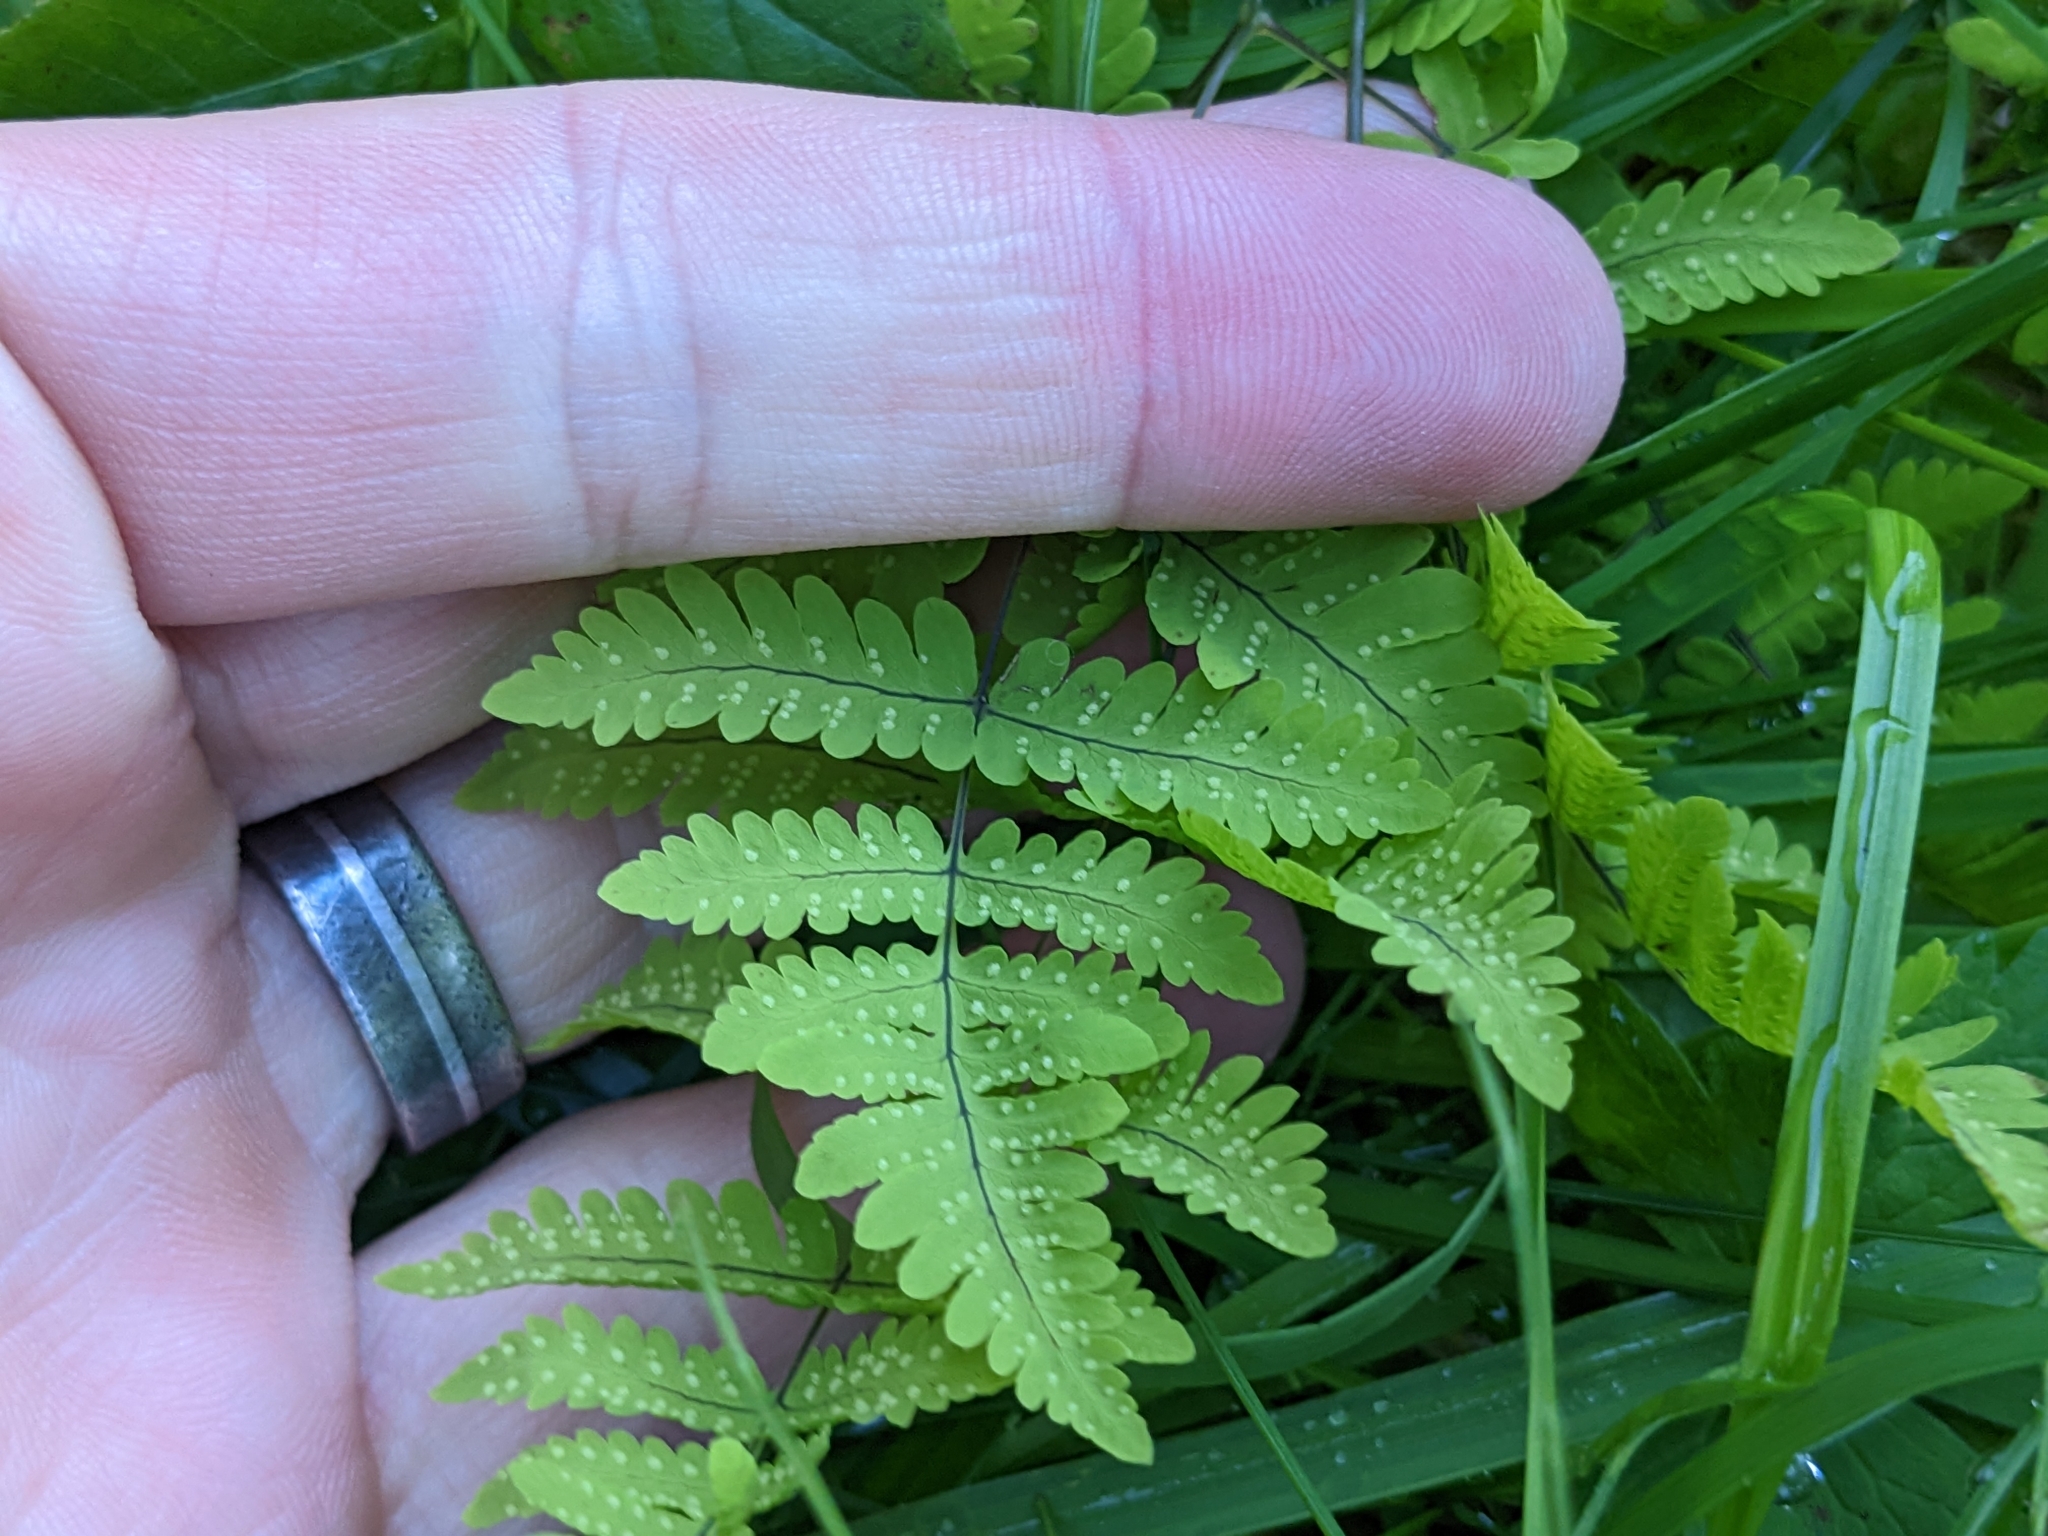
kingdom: Plantae
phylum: Tracheophyta
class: Polypodiopsida
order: Polypodiales
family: Cystopteridaceae
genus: Gymnocarpium
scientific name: Gymnocarpium dryopteris
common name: Oak fern
